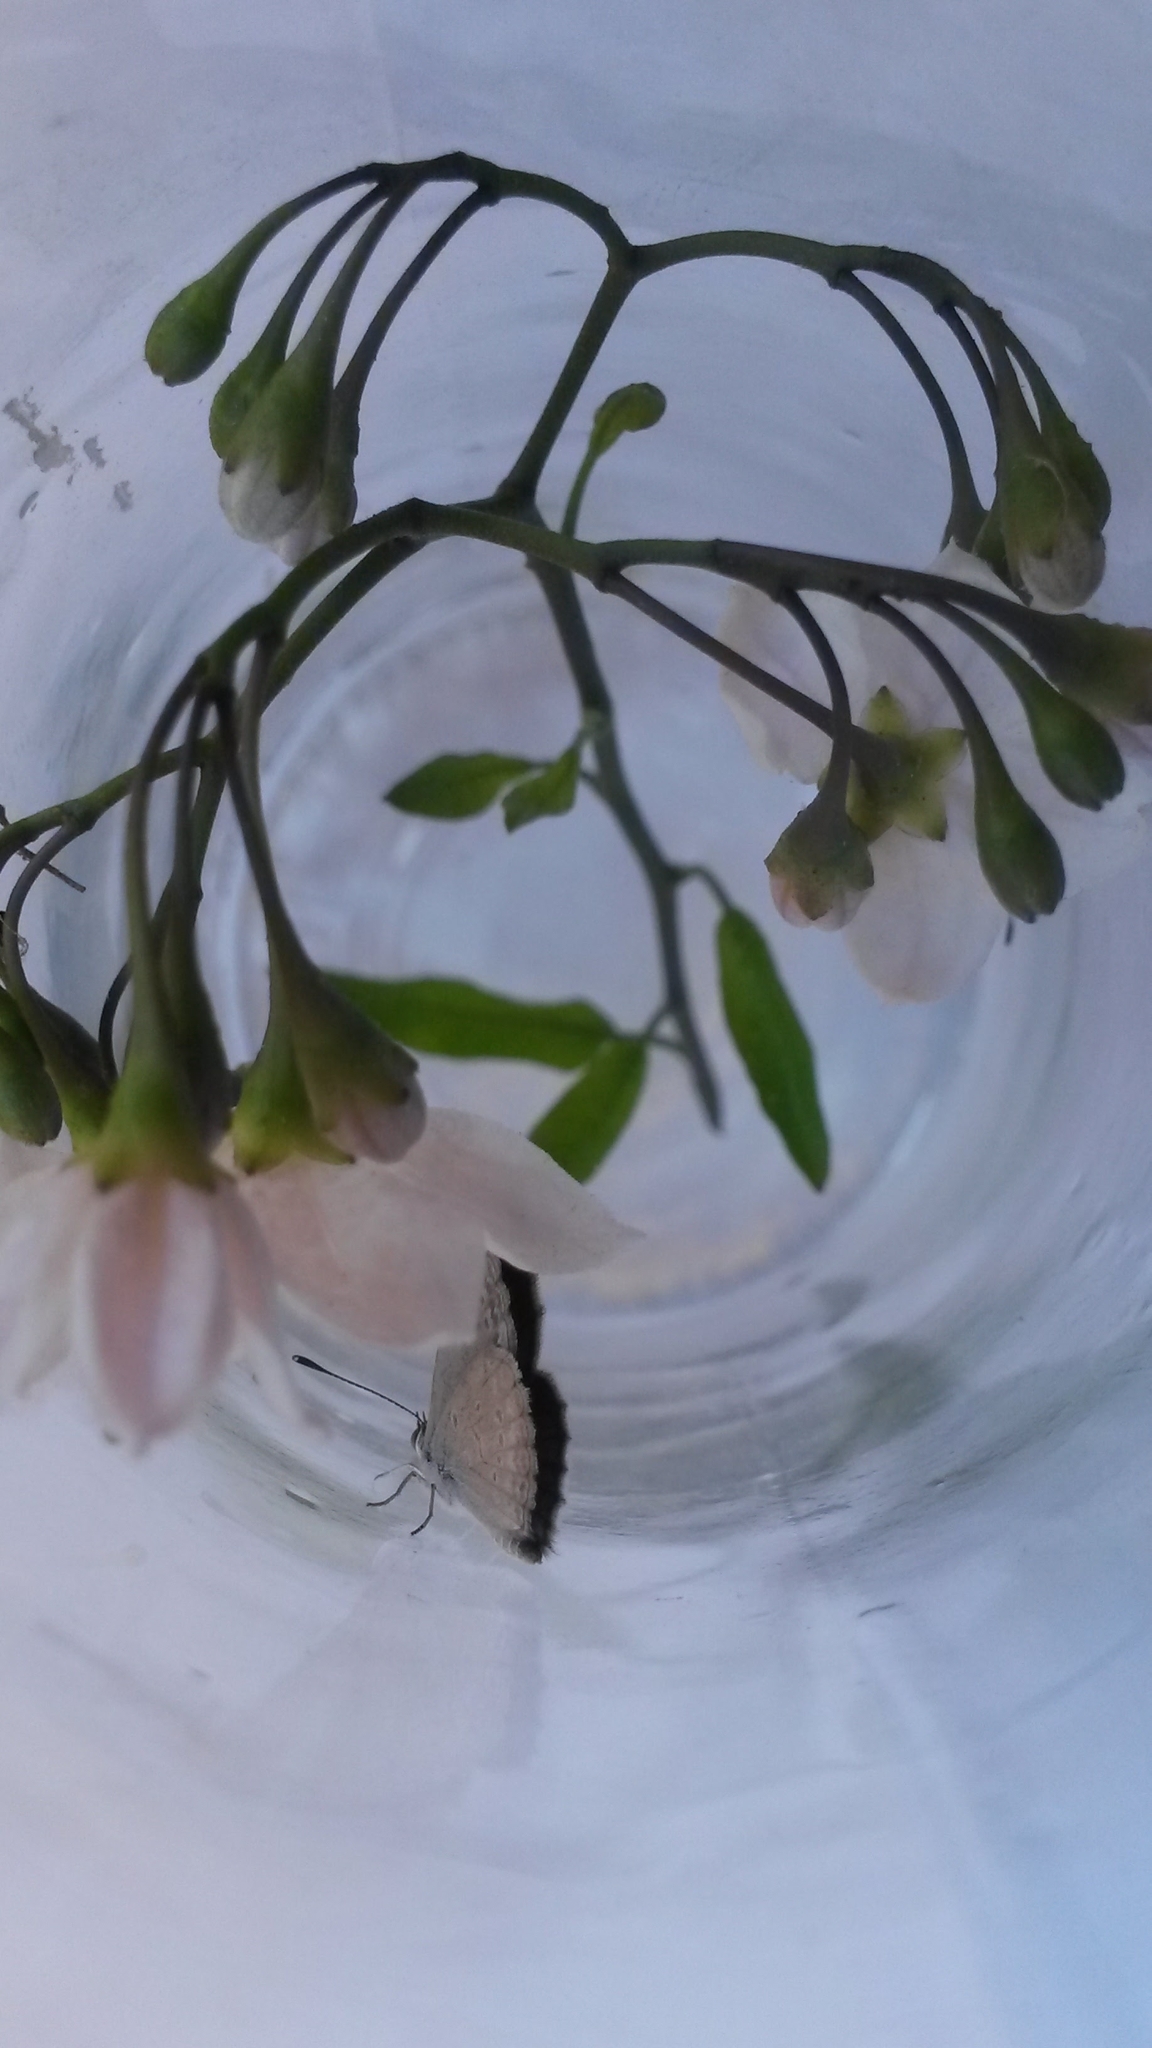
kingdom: Animalia
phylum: Arthropoda
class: Insecta
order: Lepidoptera
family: Lycaenidae
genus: Zizina
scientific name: Zizina labradus
